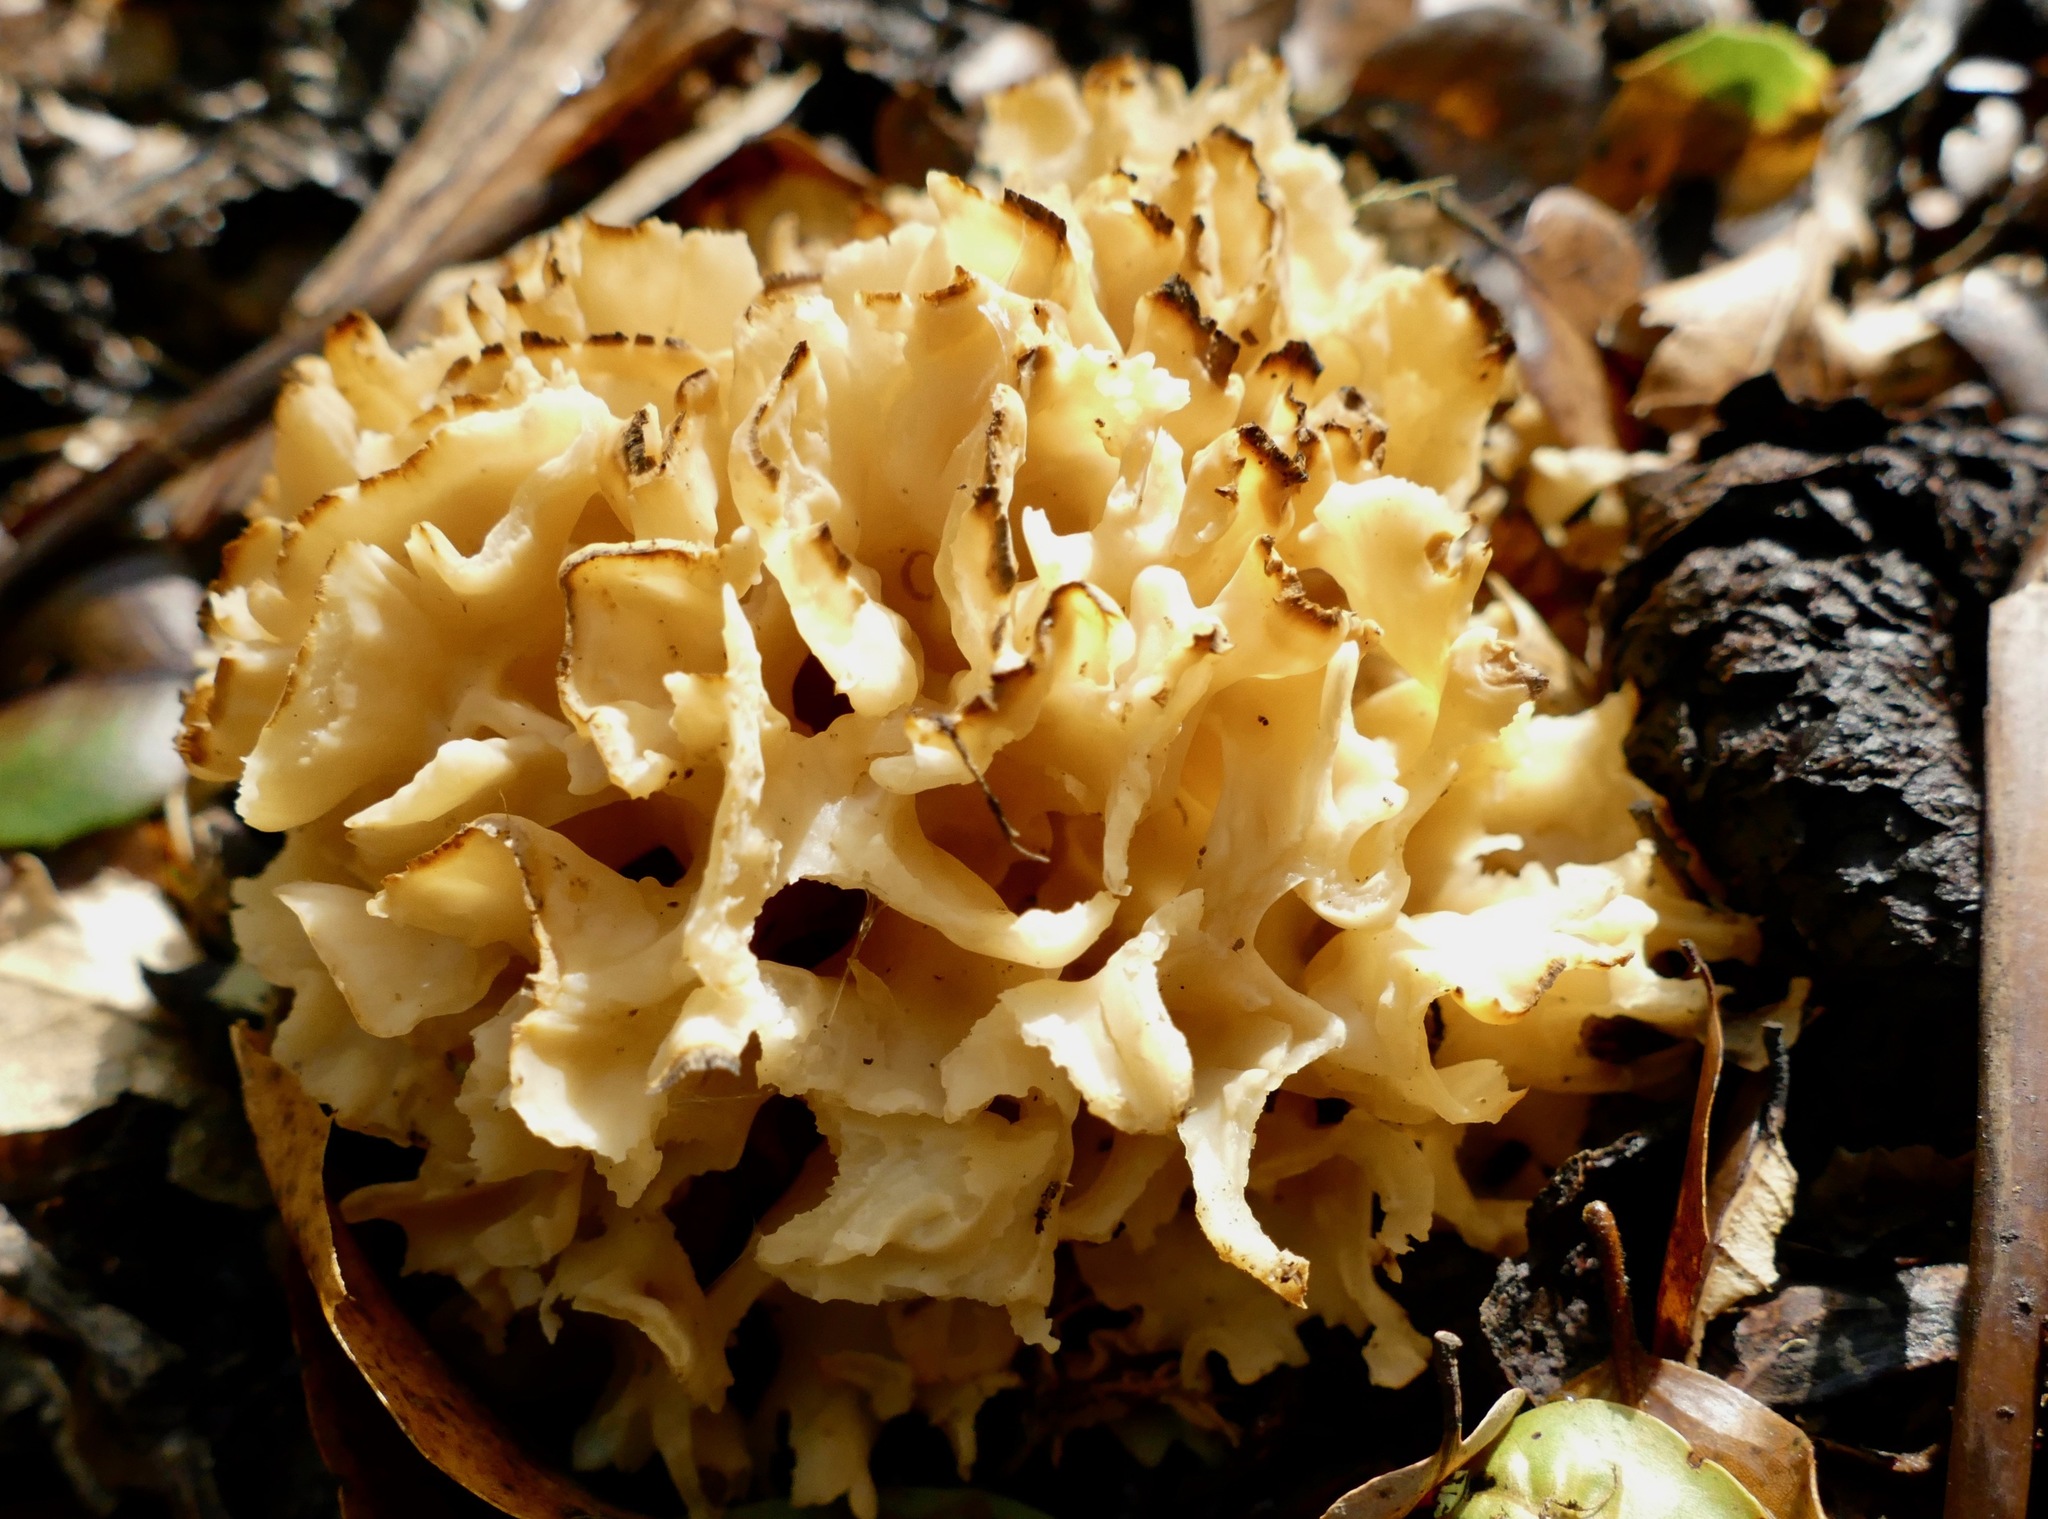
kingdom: Fungi
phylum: Basidiomycota
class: Agaricomycetes
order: Polyporales
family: Sparassidaceae
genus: Sparassis
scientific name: Sparassis radicata
